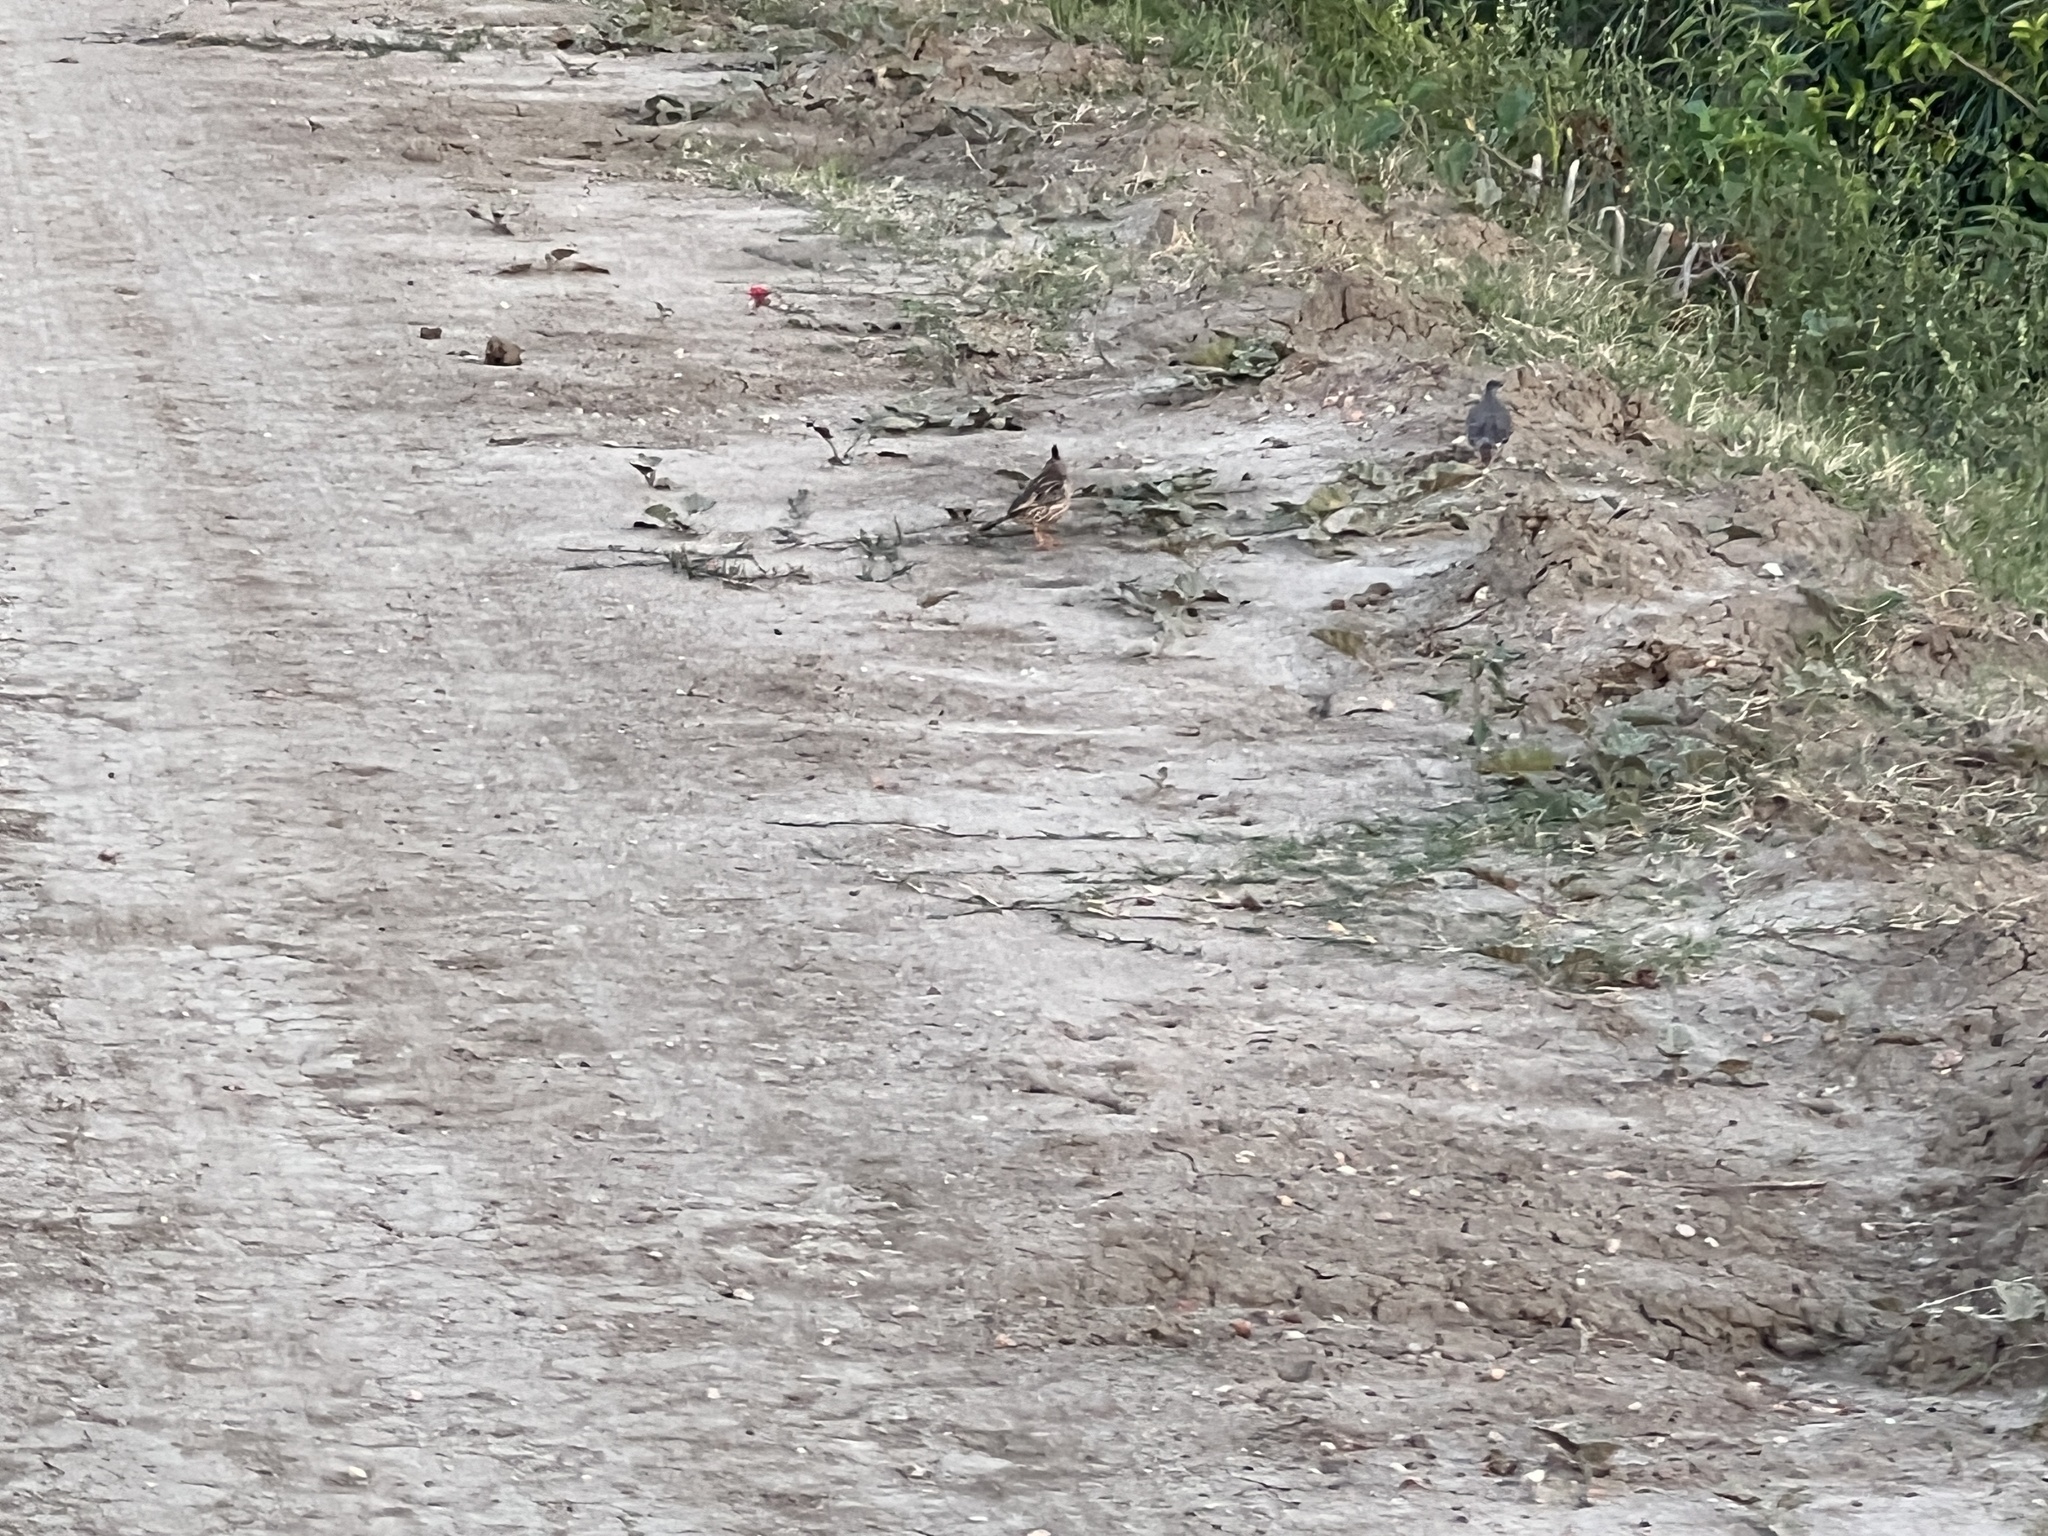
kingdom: Animalia
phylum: Chordata
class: Aves
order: Passeriformes
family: Furnariidae
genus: Coryphistera
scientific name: Coryphistera alaudina
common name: Lark-like brushrunner
